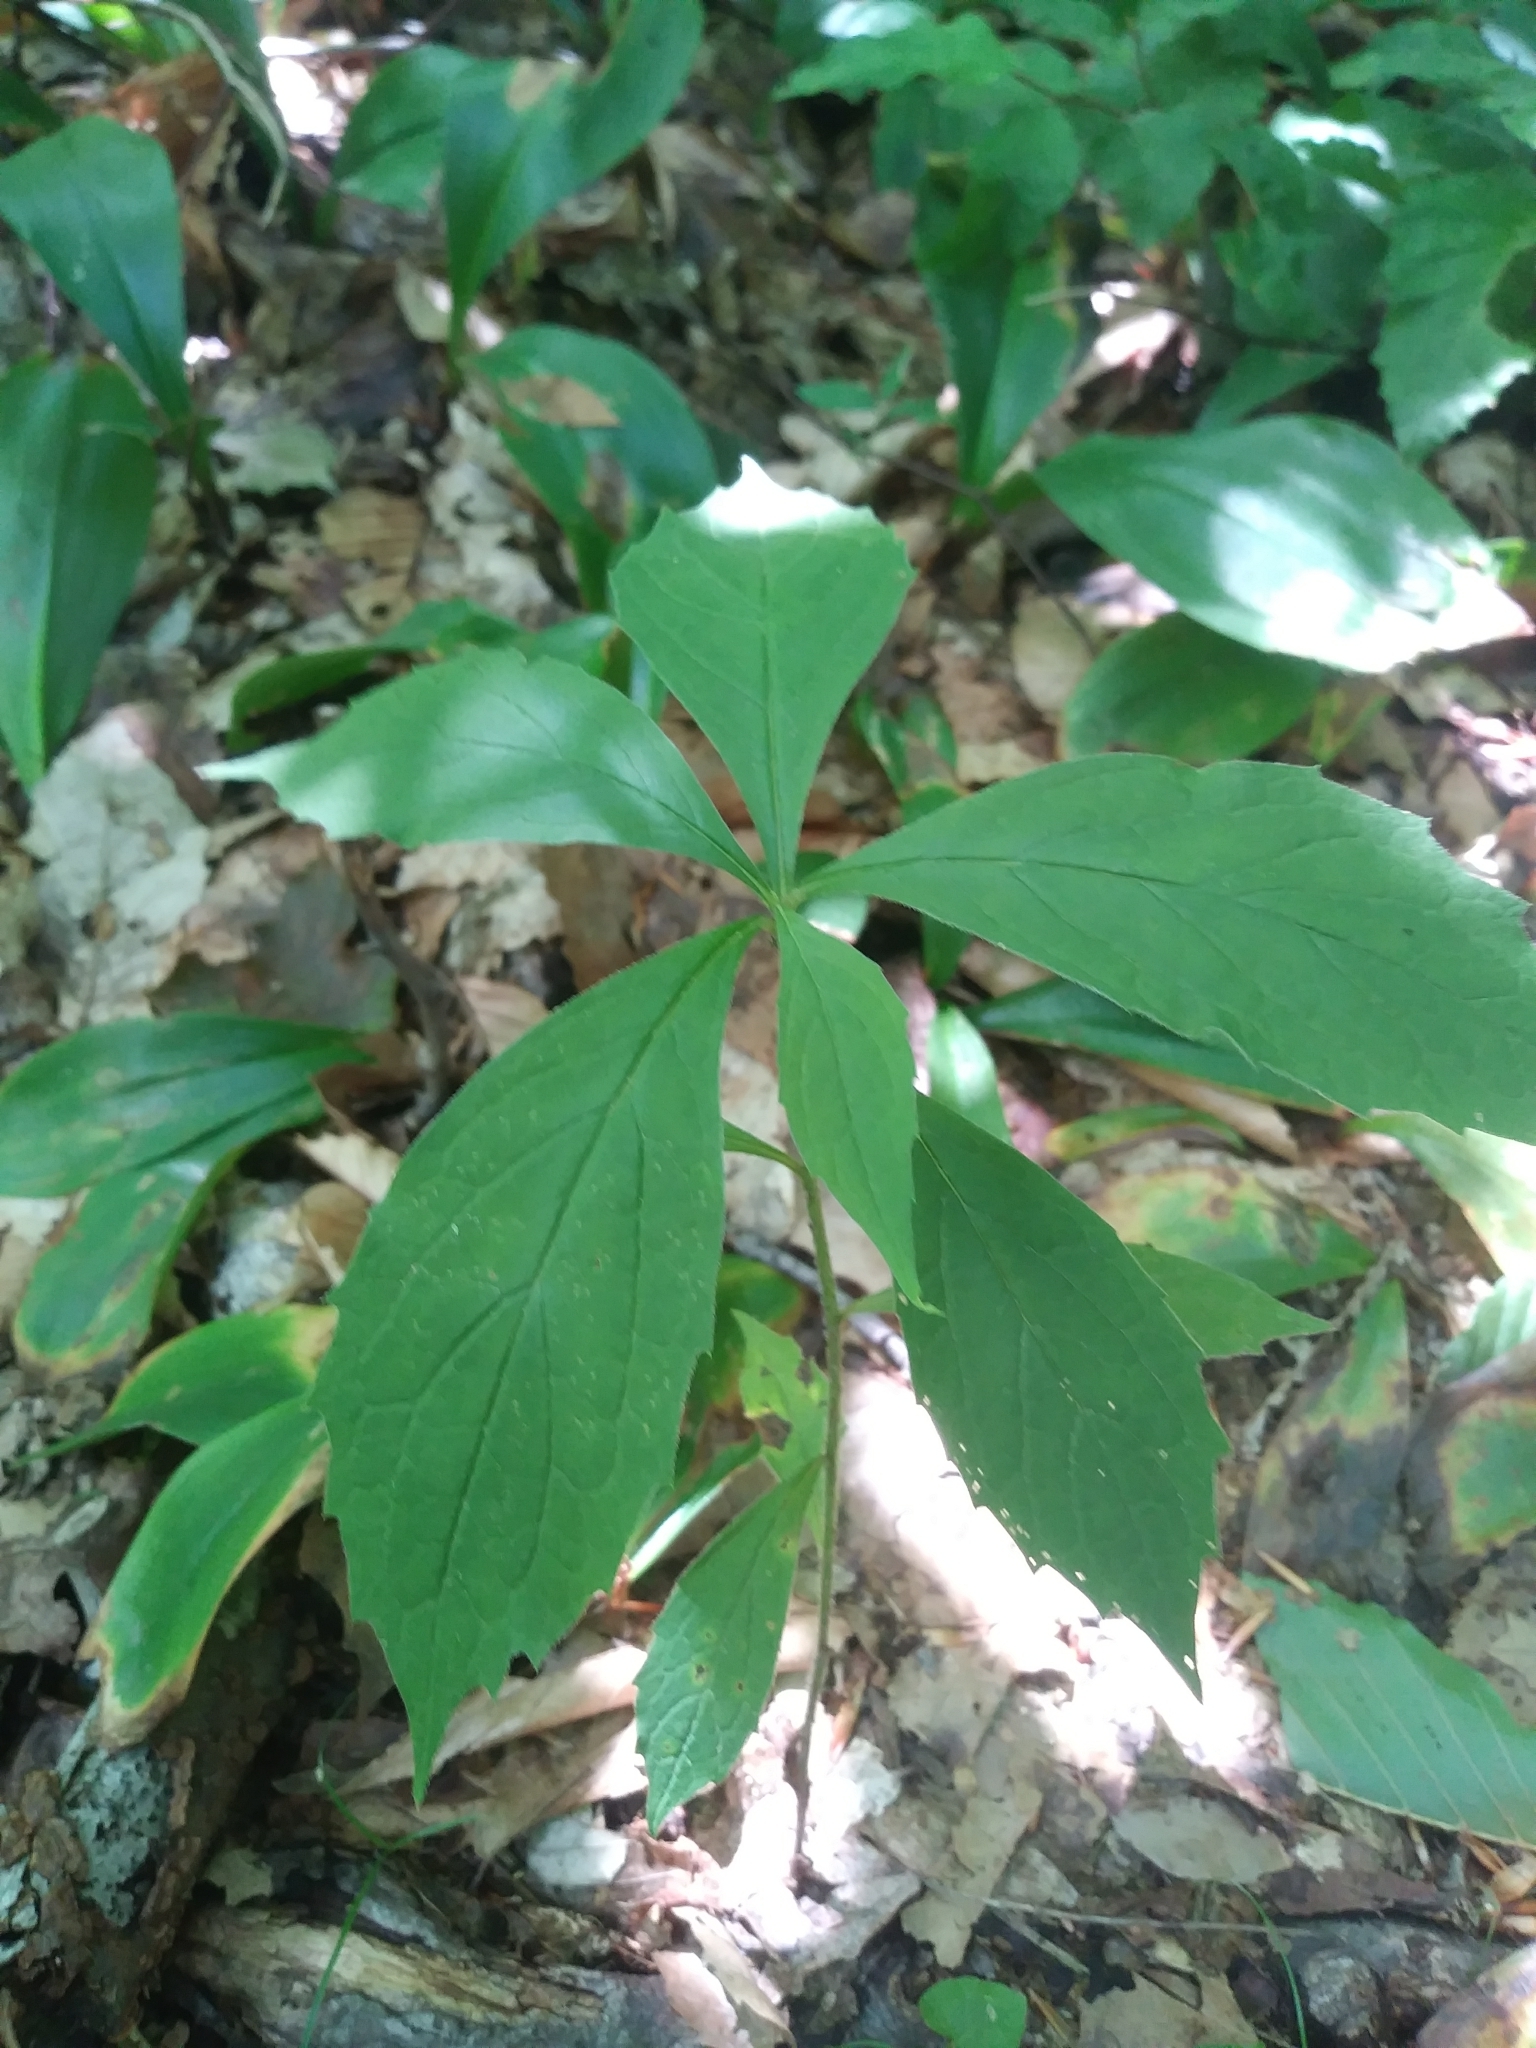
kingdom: Plantae
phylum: Tracheophyta
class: Magnoliopsida
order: Asterales
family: Asteraceae
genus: Oclemena
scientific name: Oclemena acuminata
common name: Mountain aster
